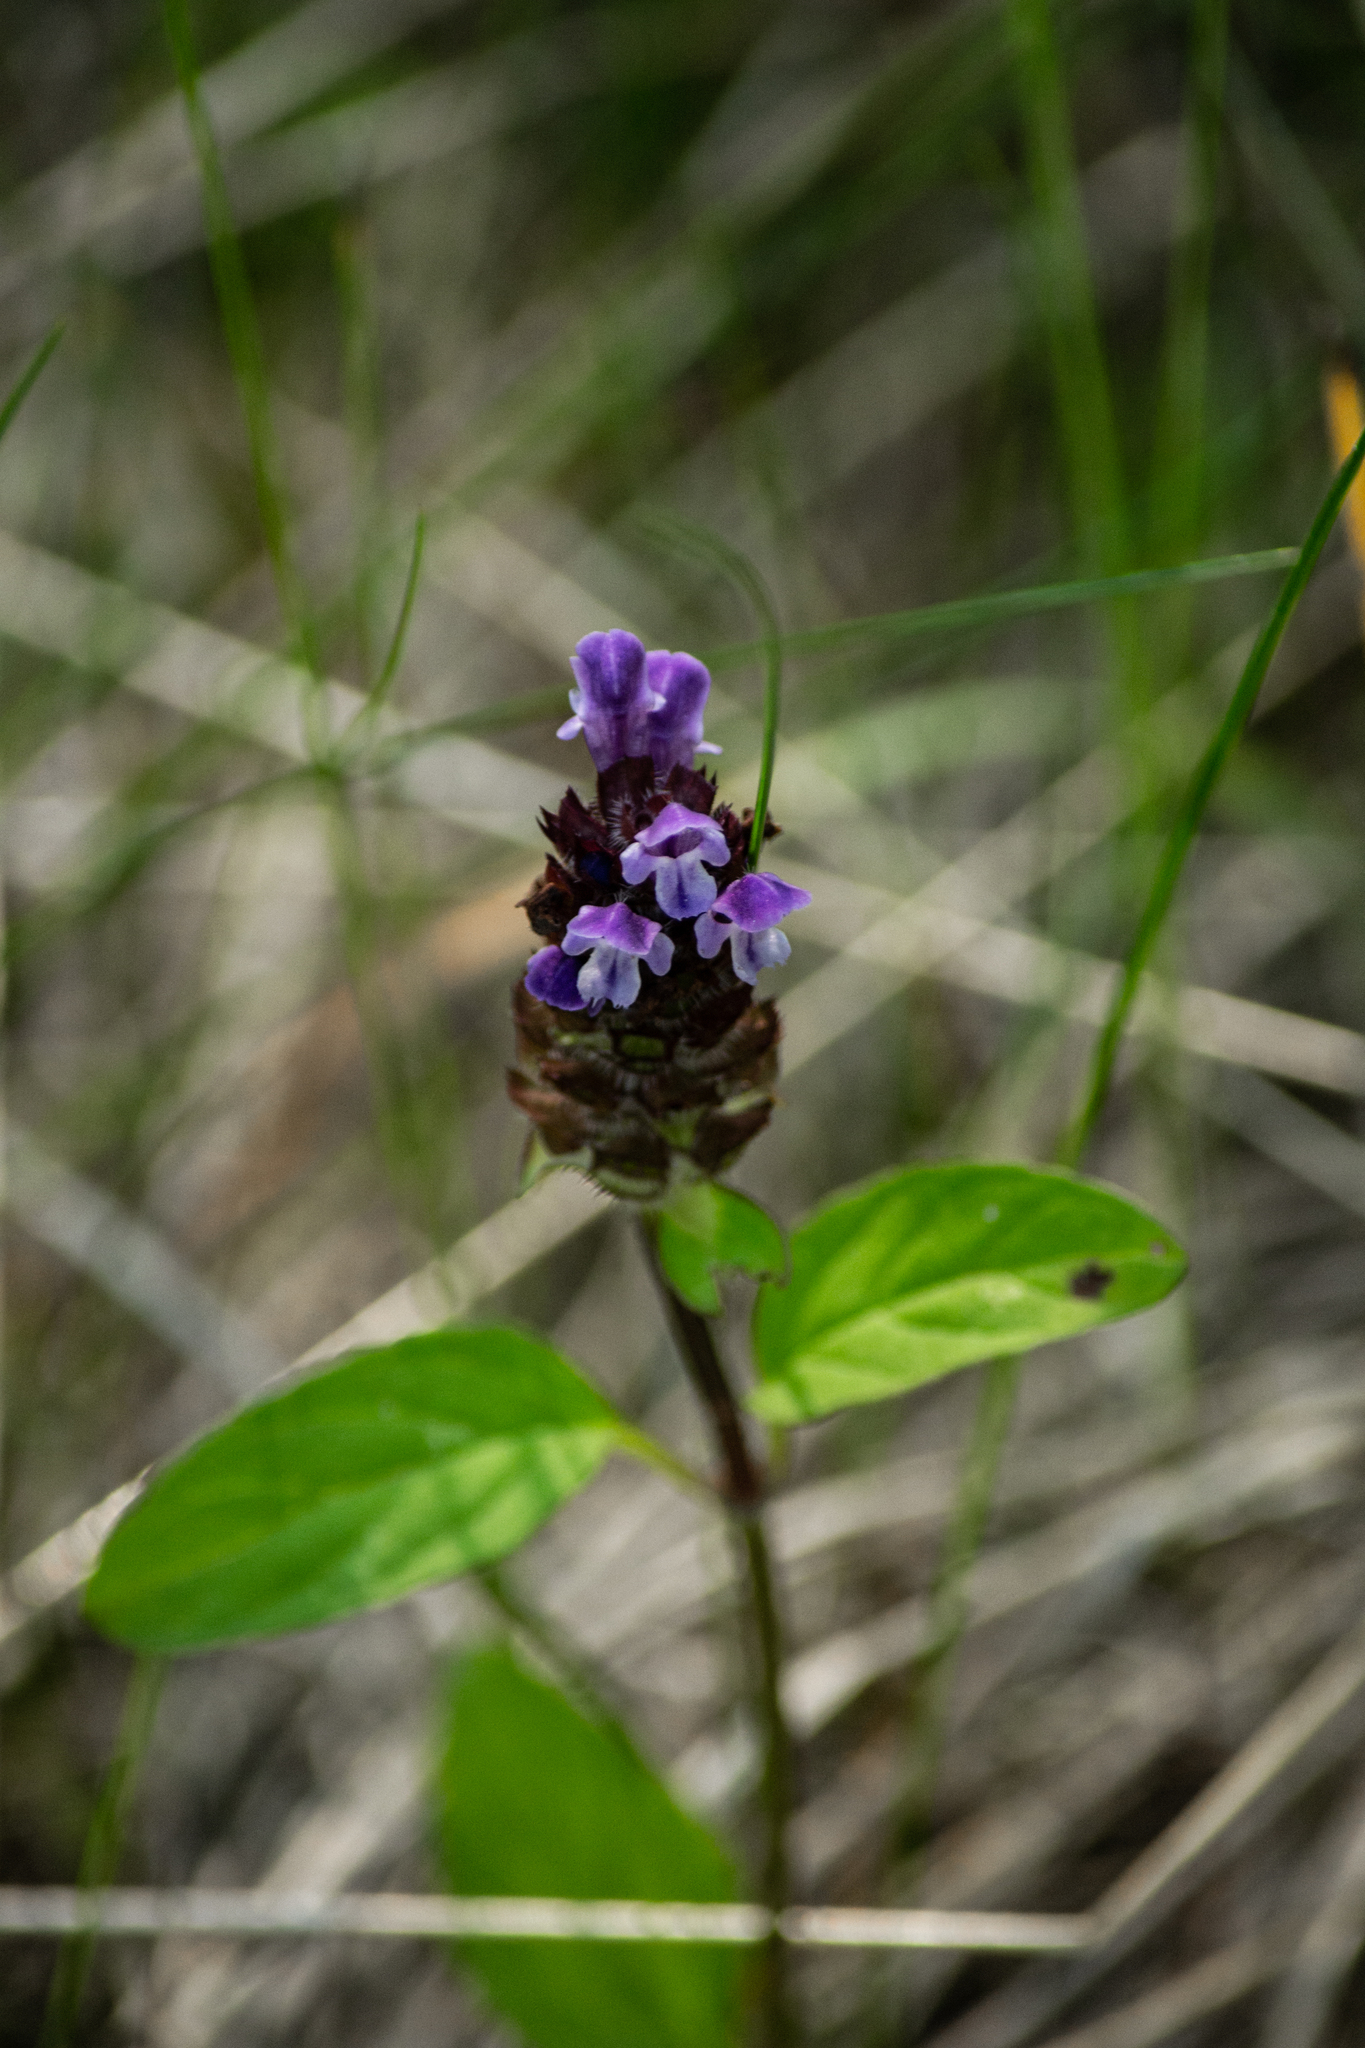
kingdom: Plantae
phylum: Tracheophyta
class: Magnoliopsida
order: Lamiales
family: Lamiaceae
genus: Prunella
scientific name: Prunella vulgaris
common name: Heal-all
